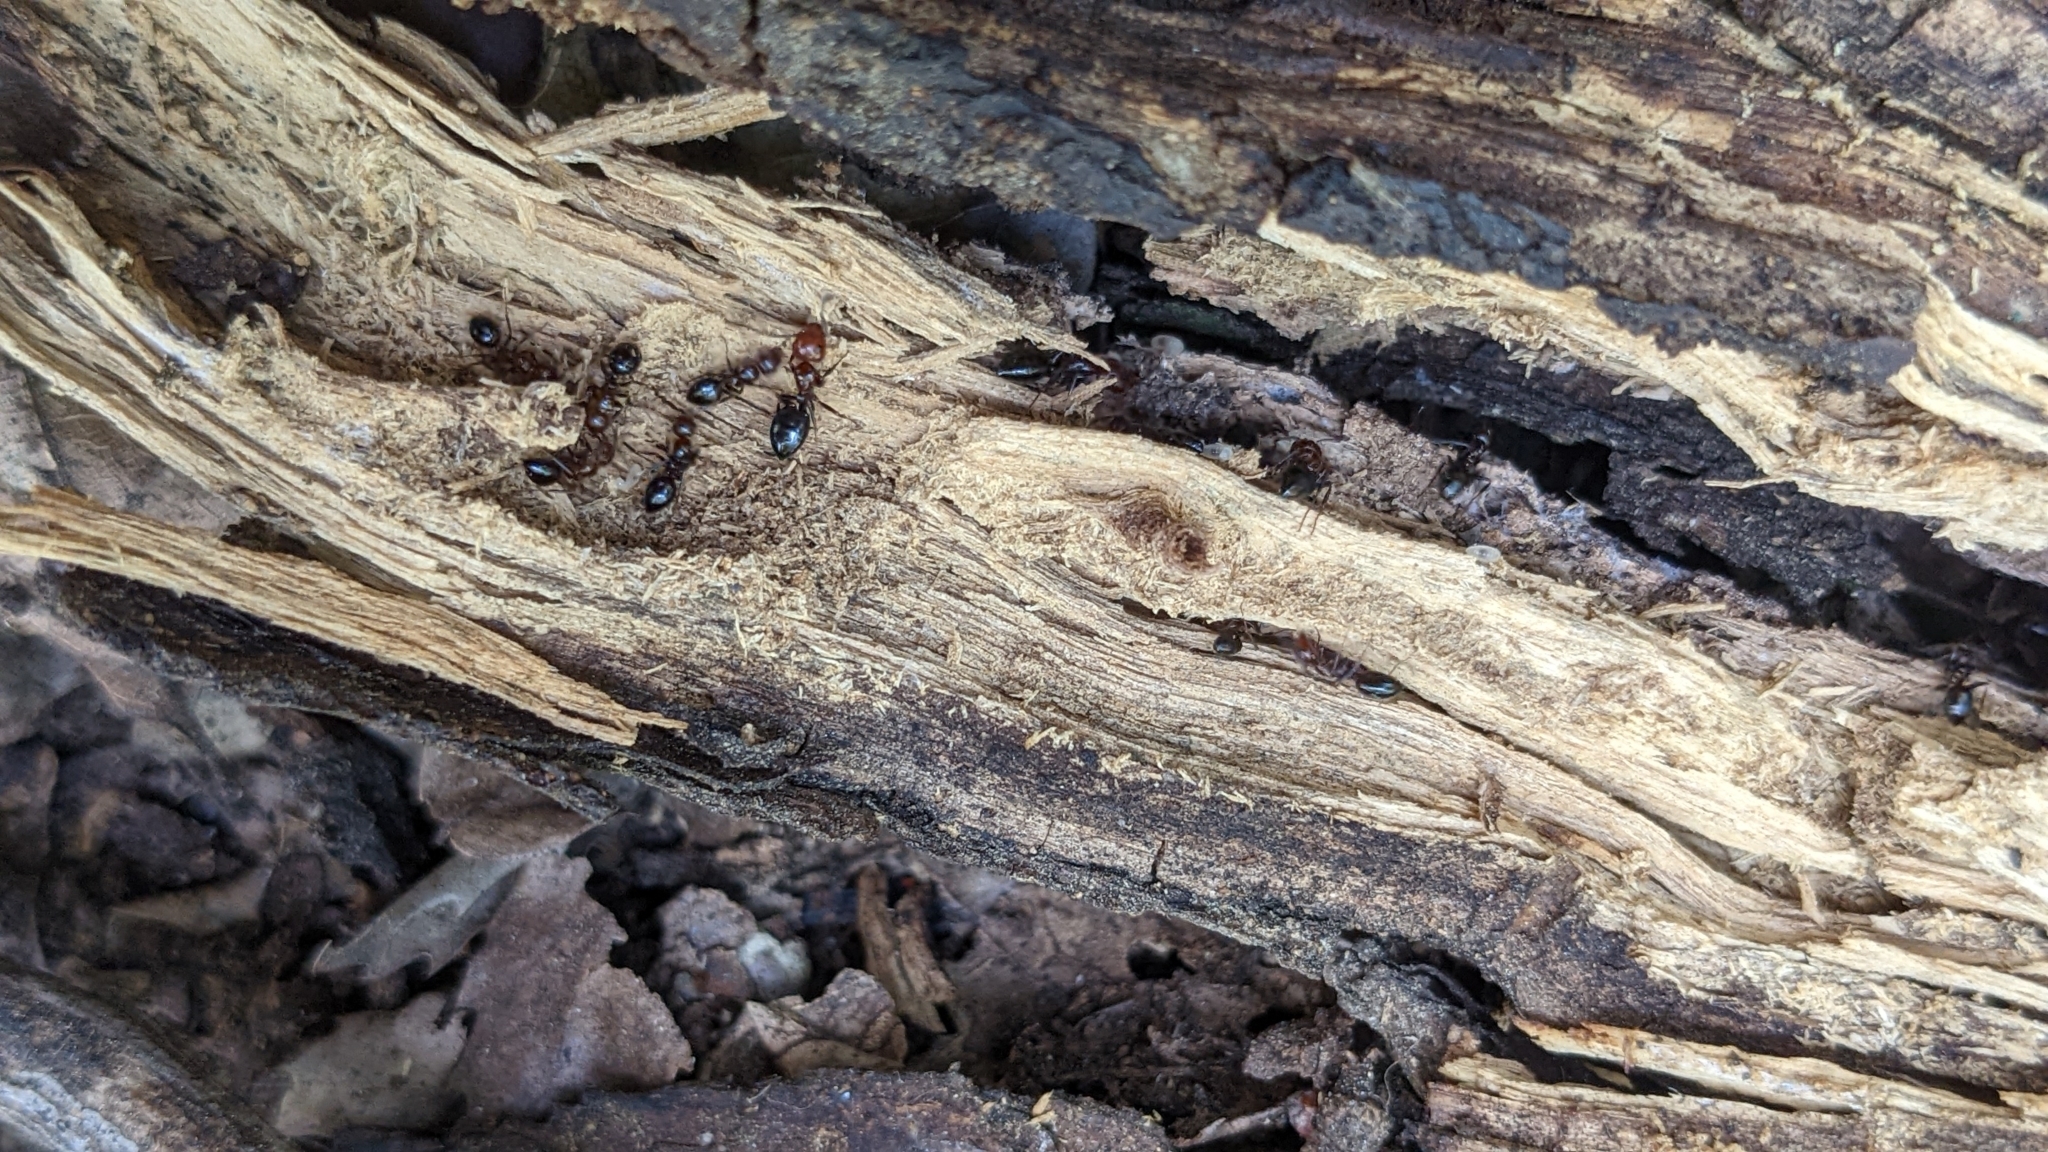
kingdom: Animalia
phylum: Arthropoda
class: Insecta
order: Hymenoptera
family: Formicidae
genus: Camponotus
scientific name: Camponotus lateralis
